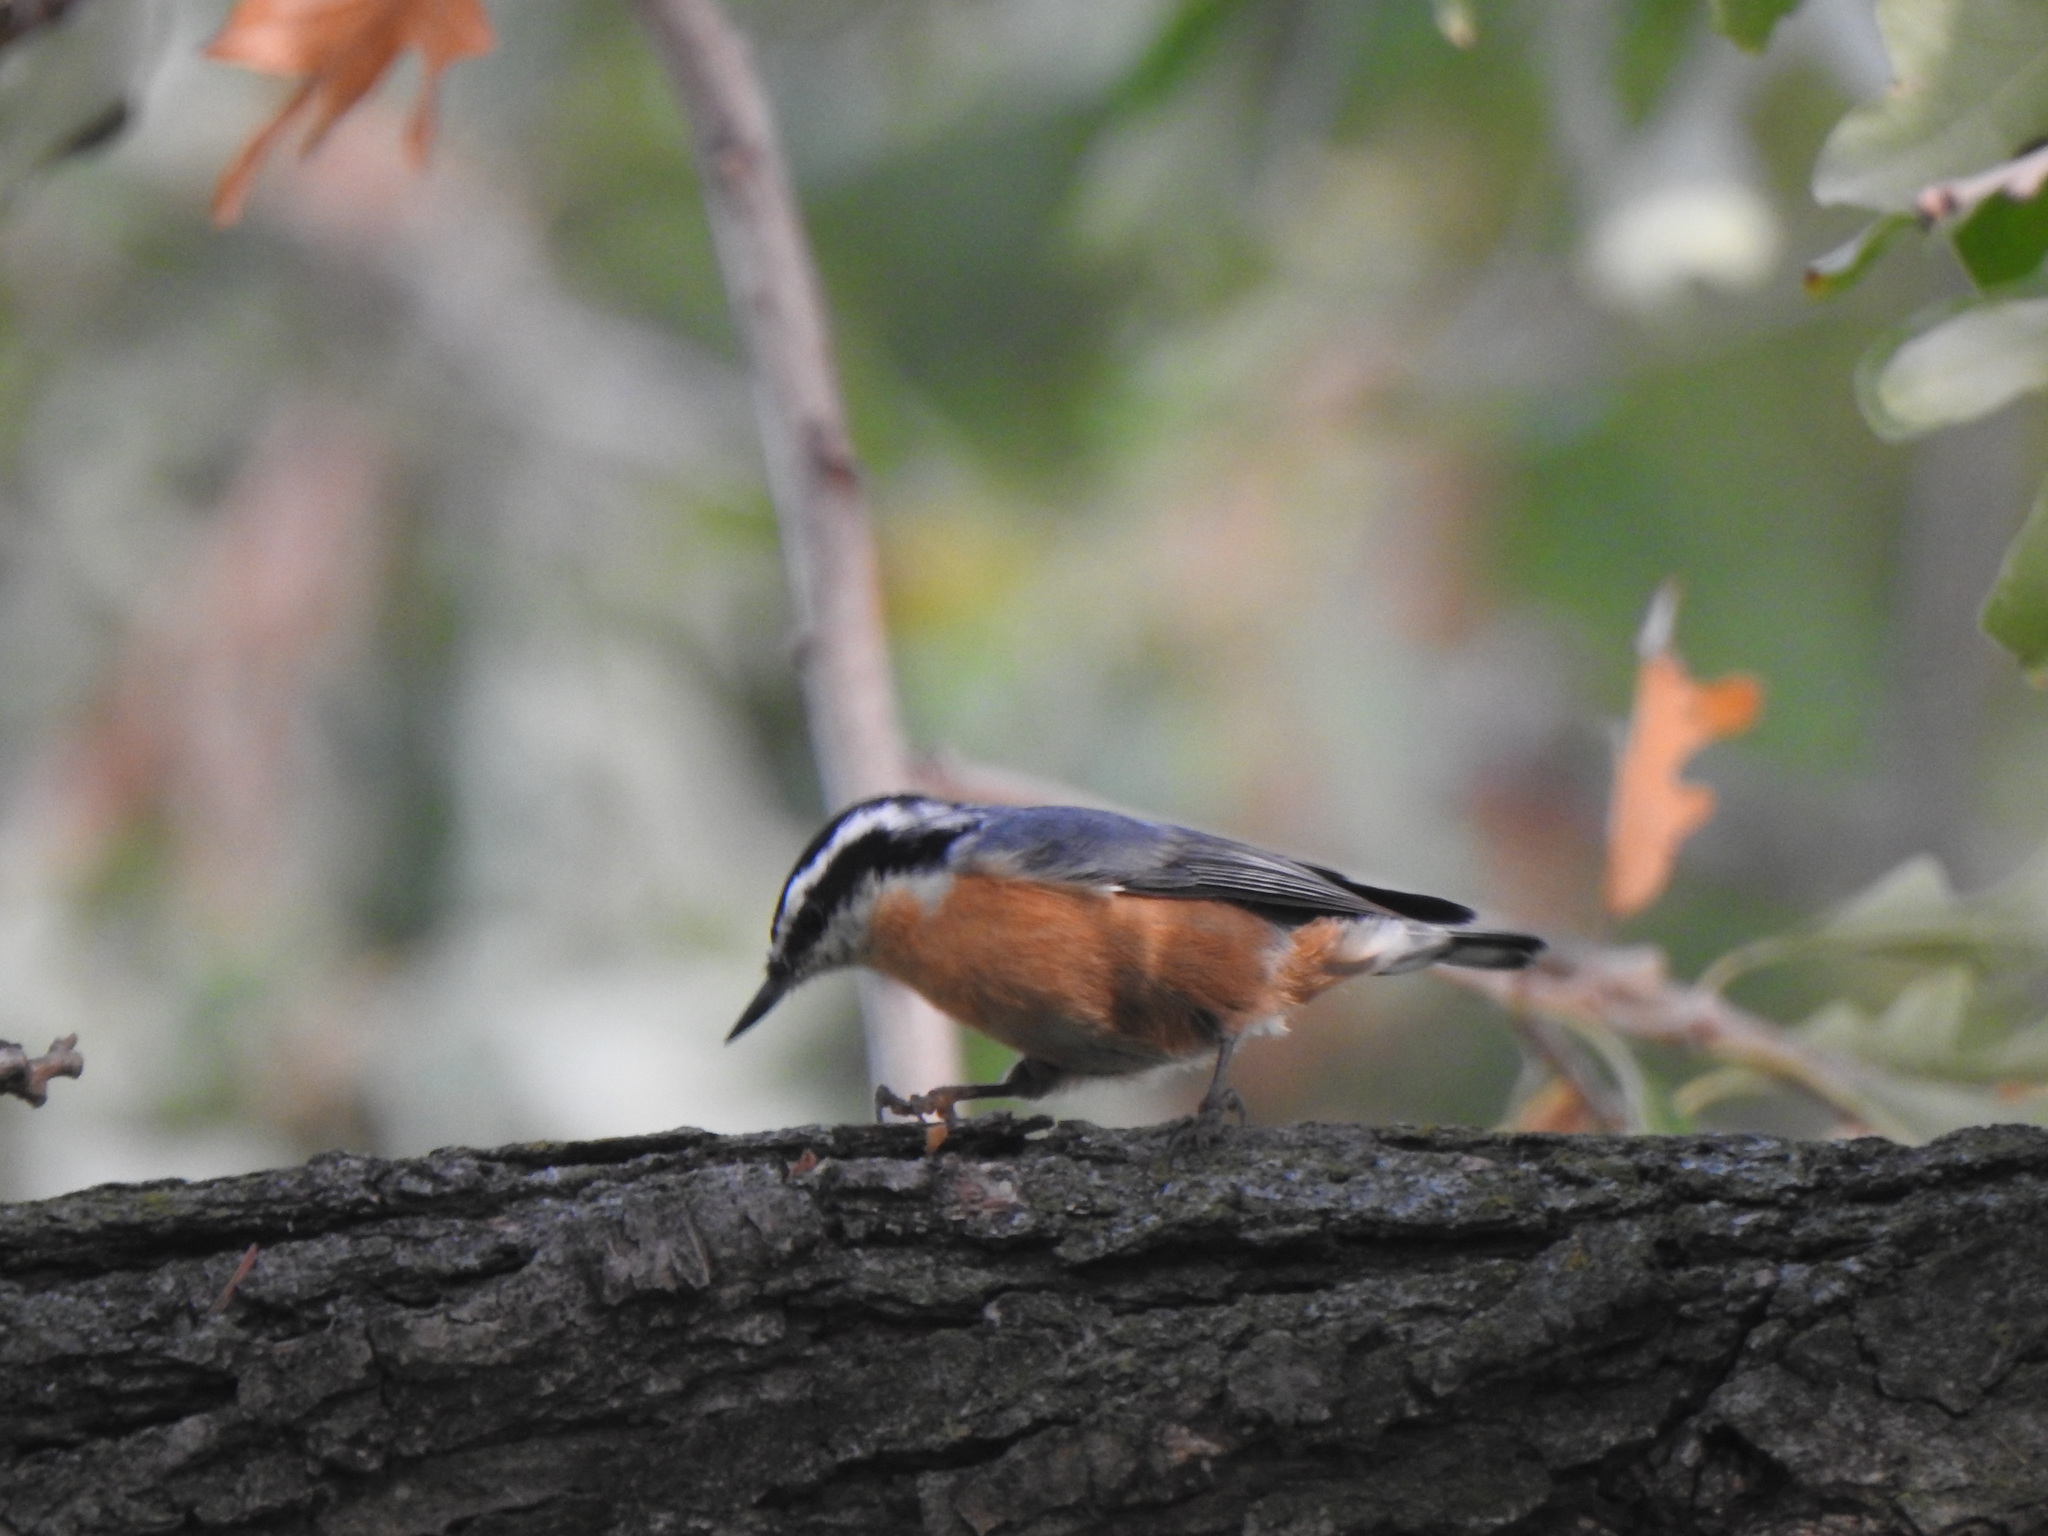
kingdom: Animalia
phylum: Chordata
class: Aves
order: Passeriformes
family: Sittidae
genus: Sitta
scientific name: Sitta canadensis
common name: Red-breasted nuthatch
